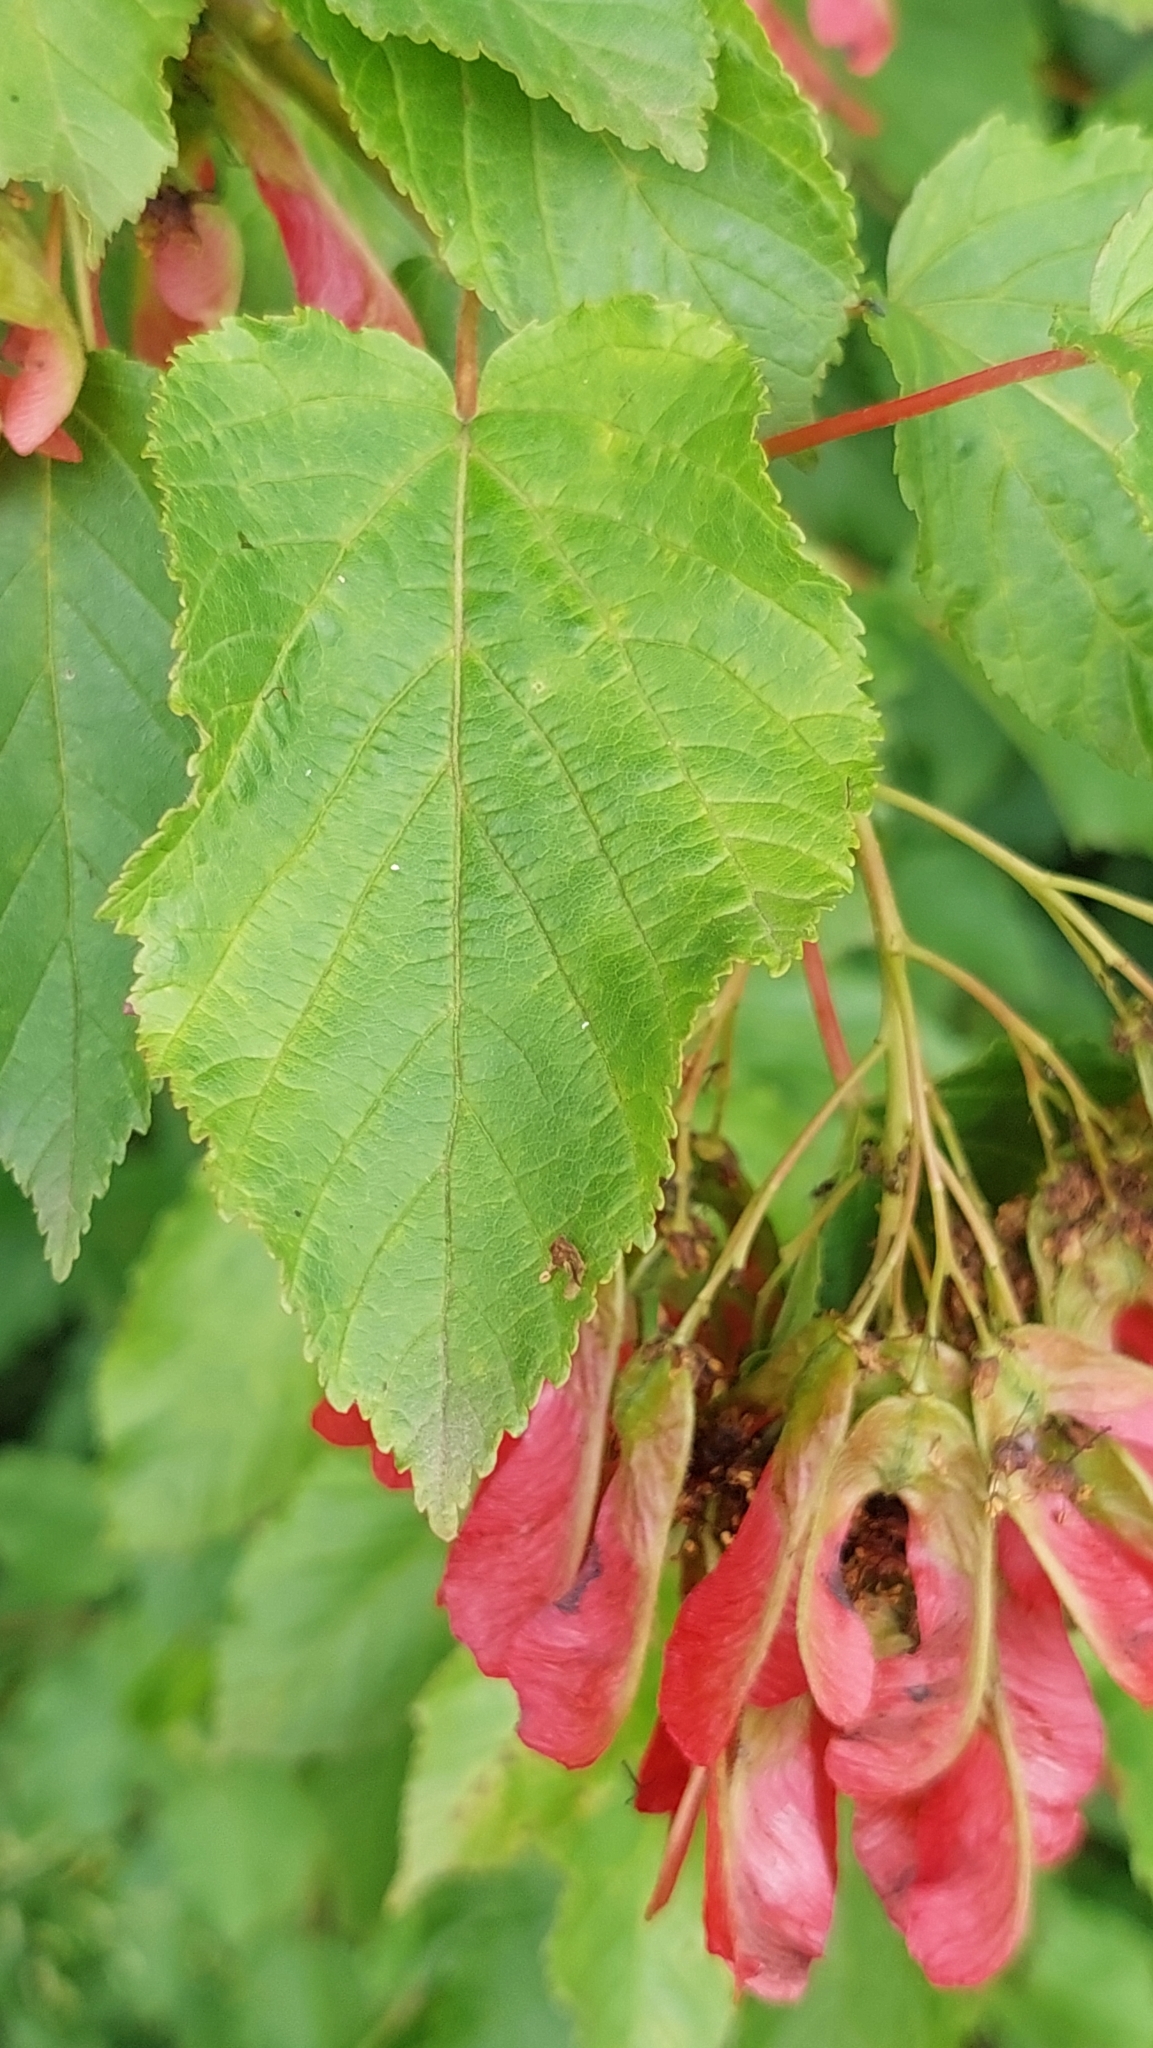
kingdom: Plantae
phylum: Tracheophyta
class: Magnoliopsida
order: Sapindales
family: Sapindaceae
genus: Acer
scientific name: Acer tataricum
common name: Tartar maple
